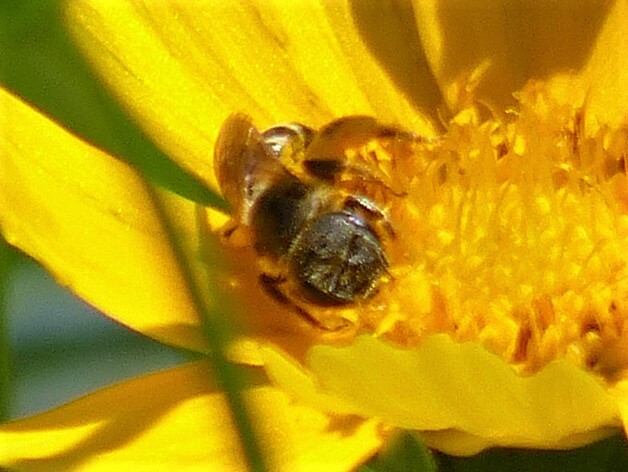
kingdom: Animalia
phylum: Arthropoda
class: Insecta
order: Hymenoptera
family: Halictidae
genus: Halictus
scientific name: Halictus ligatus
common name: Ligated furrow bee
